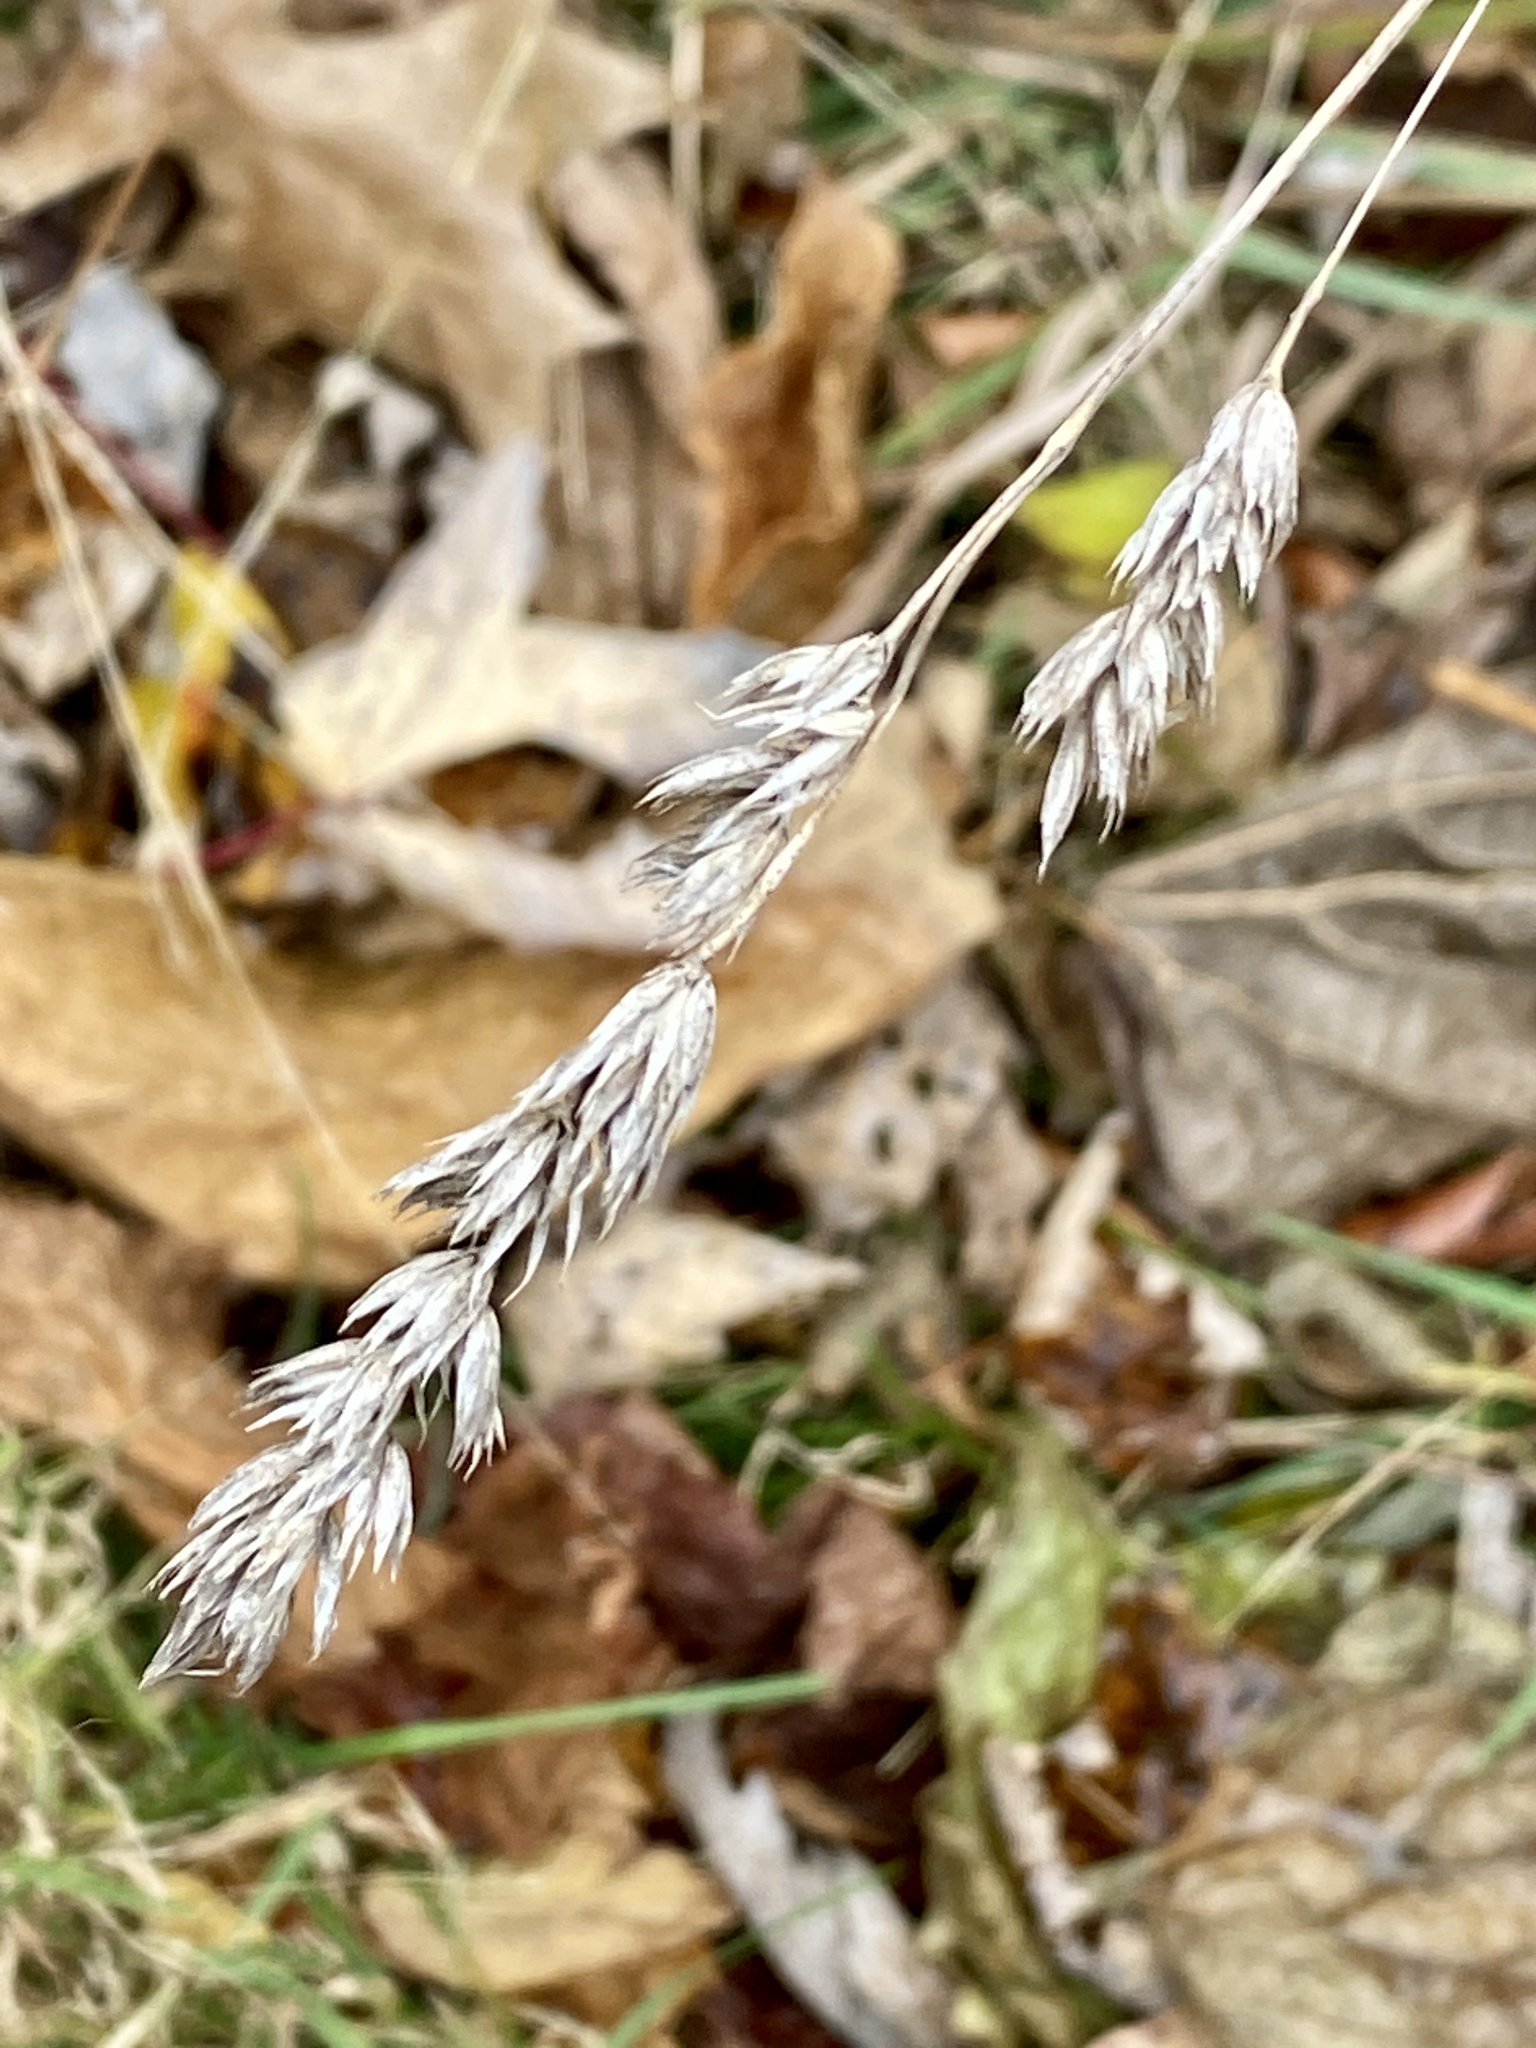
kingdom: Plantae
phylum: Tracheophyta
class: Liliopsida
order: Poales
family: Poaceae
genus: Dactylis
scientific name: Dactylis glomerata
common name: Orchardgrass
